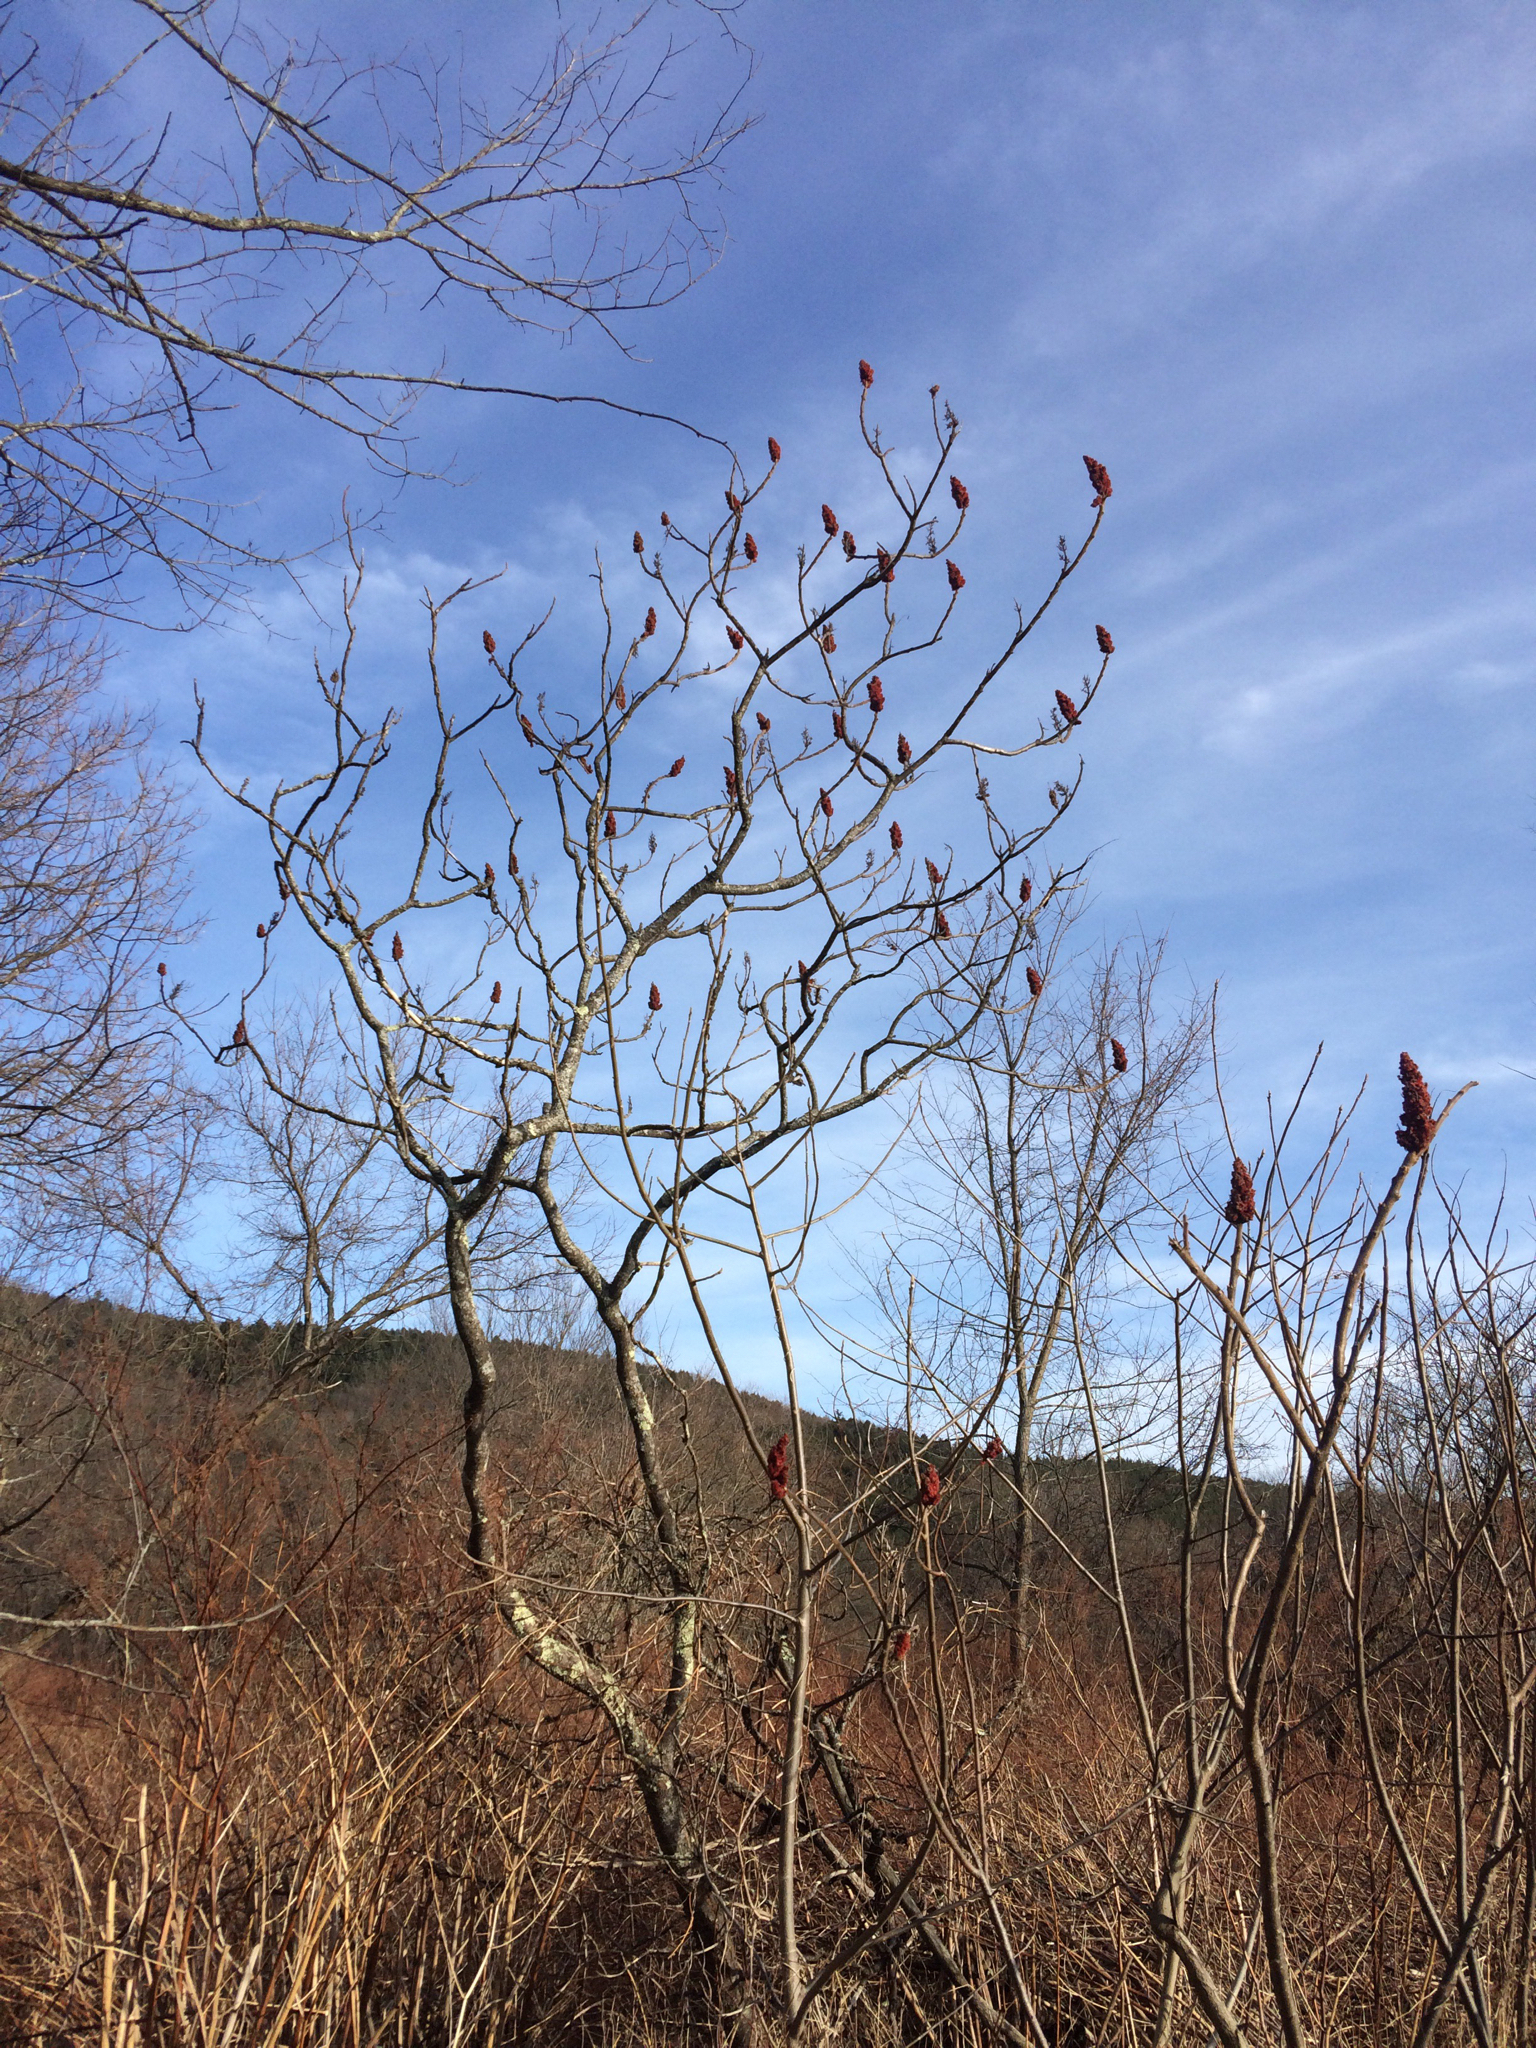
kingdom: Plantae
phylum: Tracheophyta
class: Magnoliopsida
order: Sapindales
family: Anacardiaceae
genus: Rhus
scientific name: Rhus typhina
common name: Staghorn sumac
